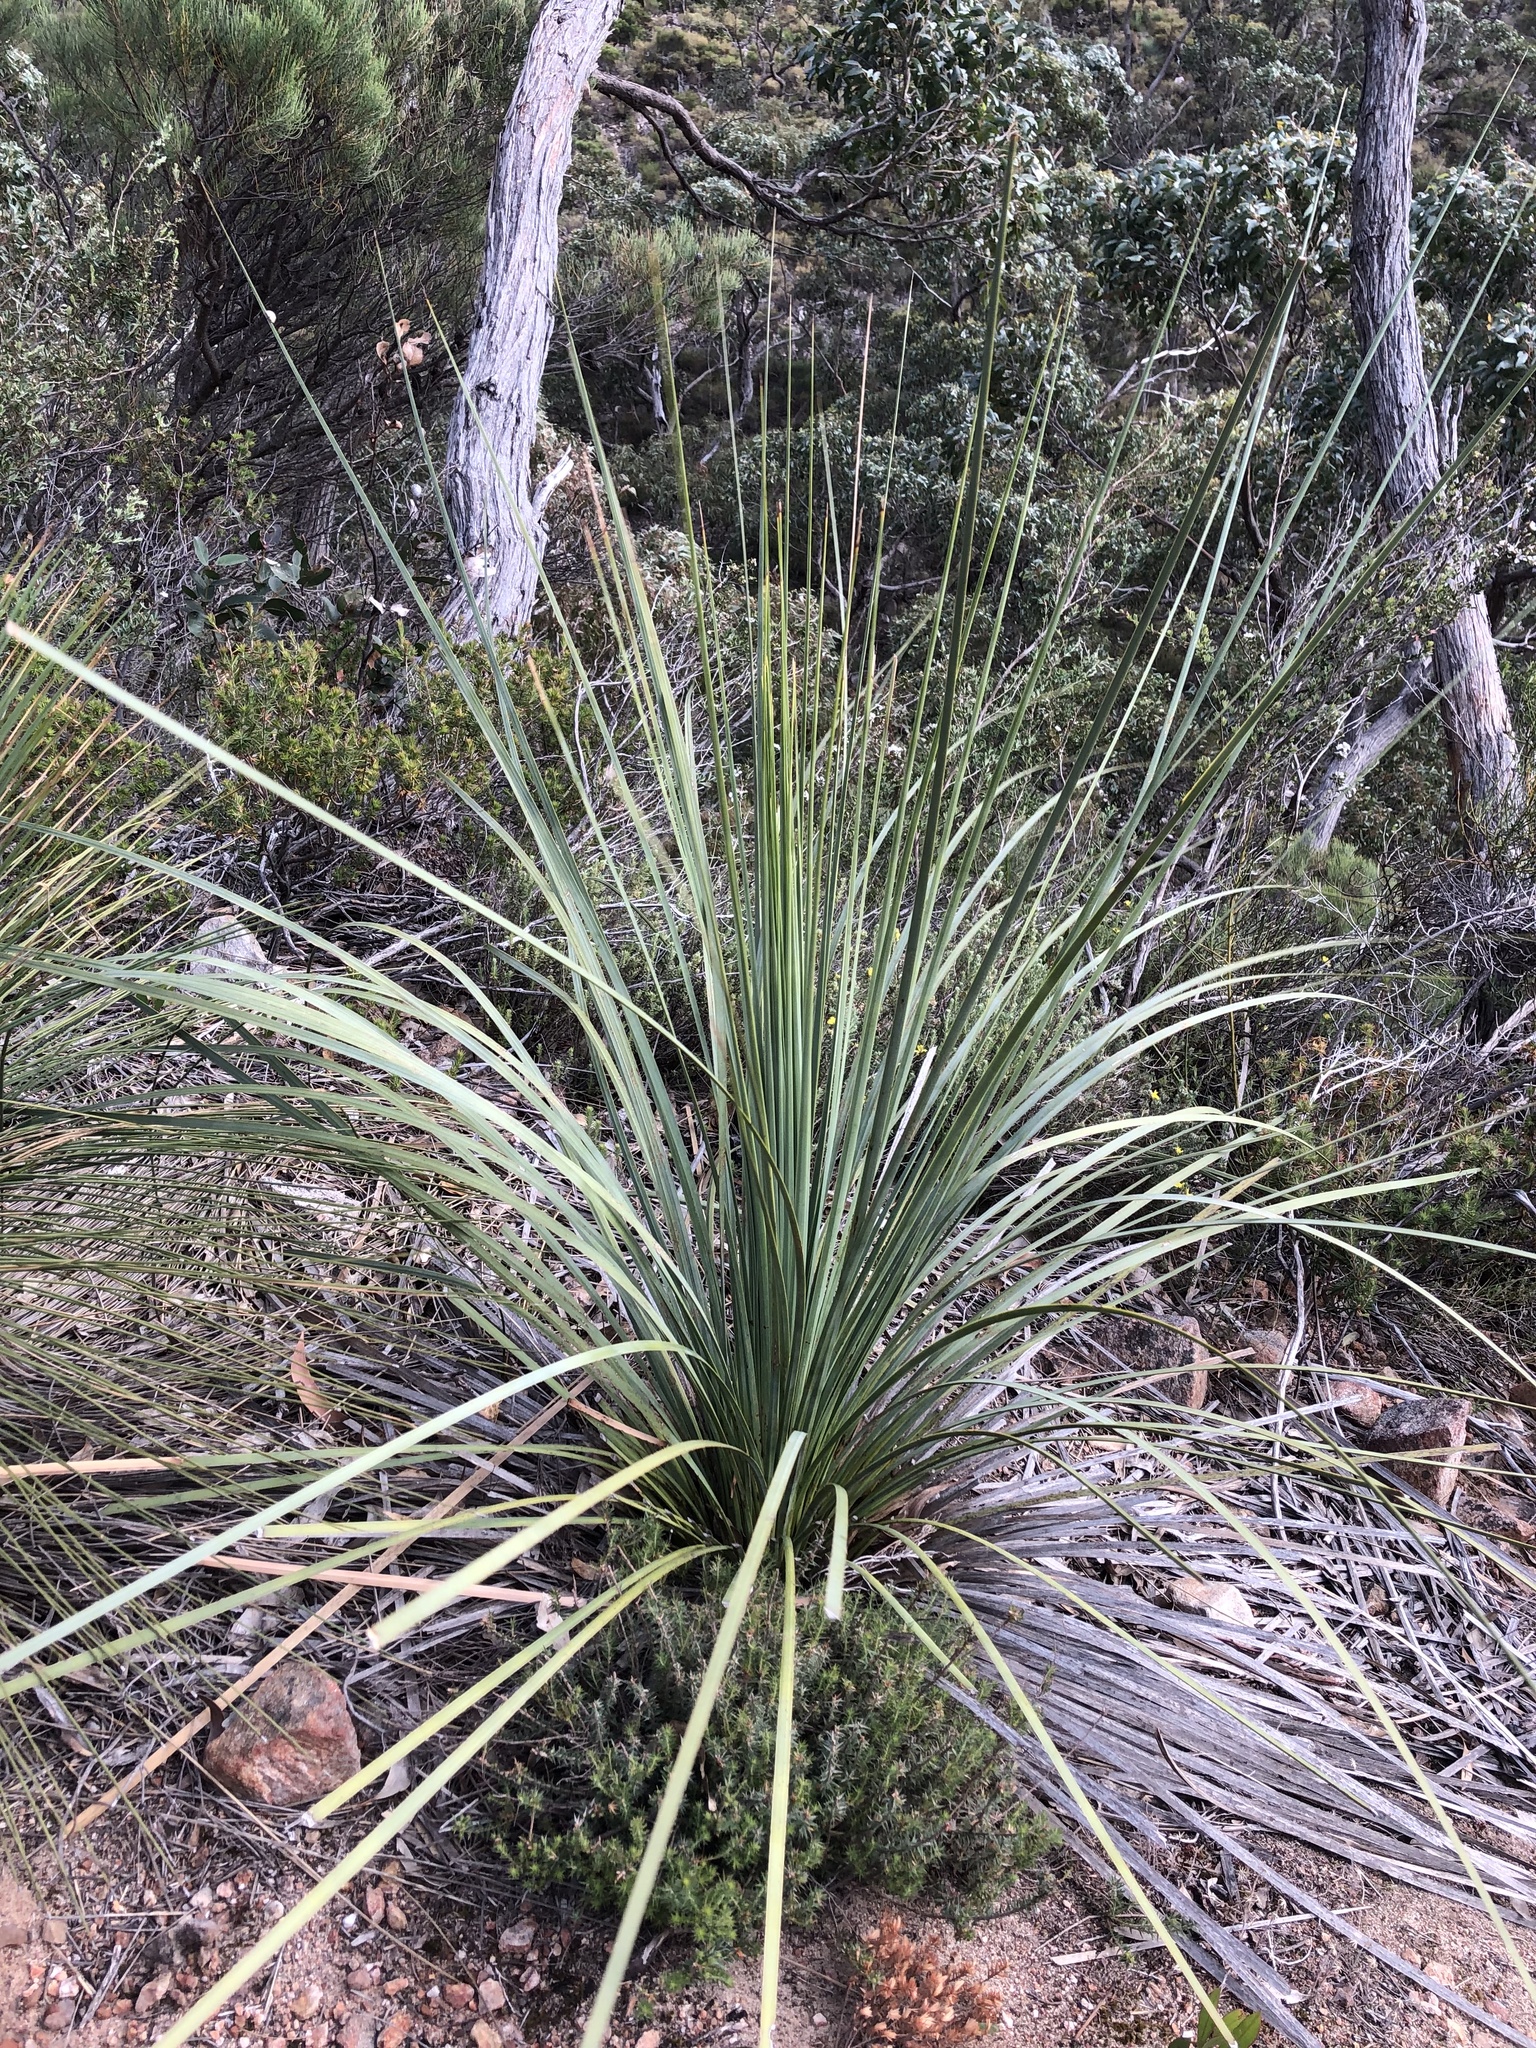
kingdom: Plantae
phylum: Tracheophyta
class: Liliopsida
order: Asparagales
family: Asphodelaceae
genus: Xanthorrhoea
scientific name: Xanthorrhoea semiplana
